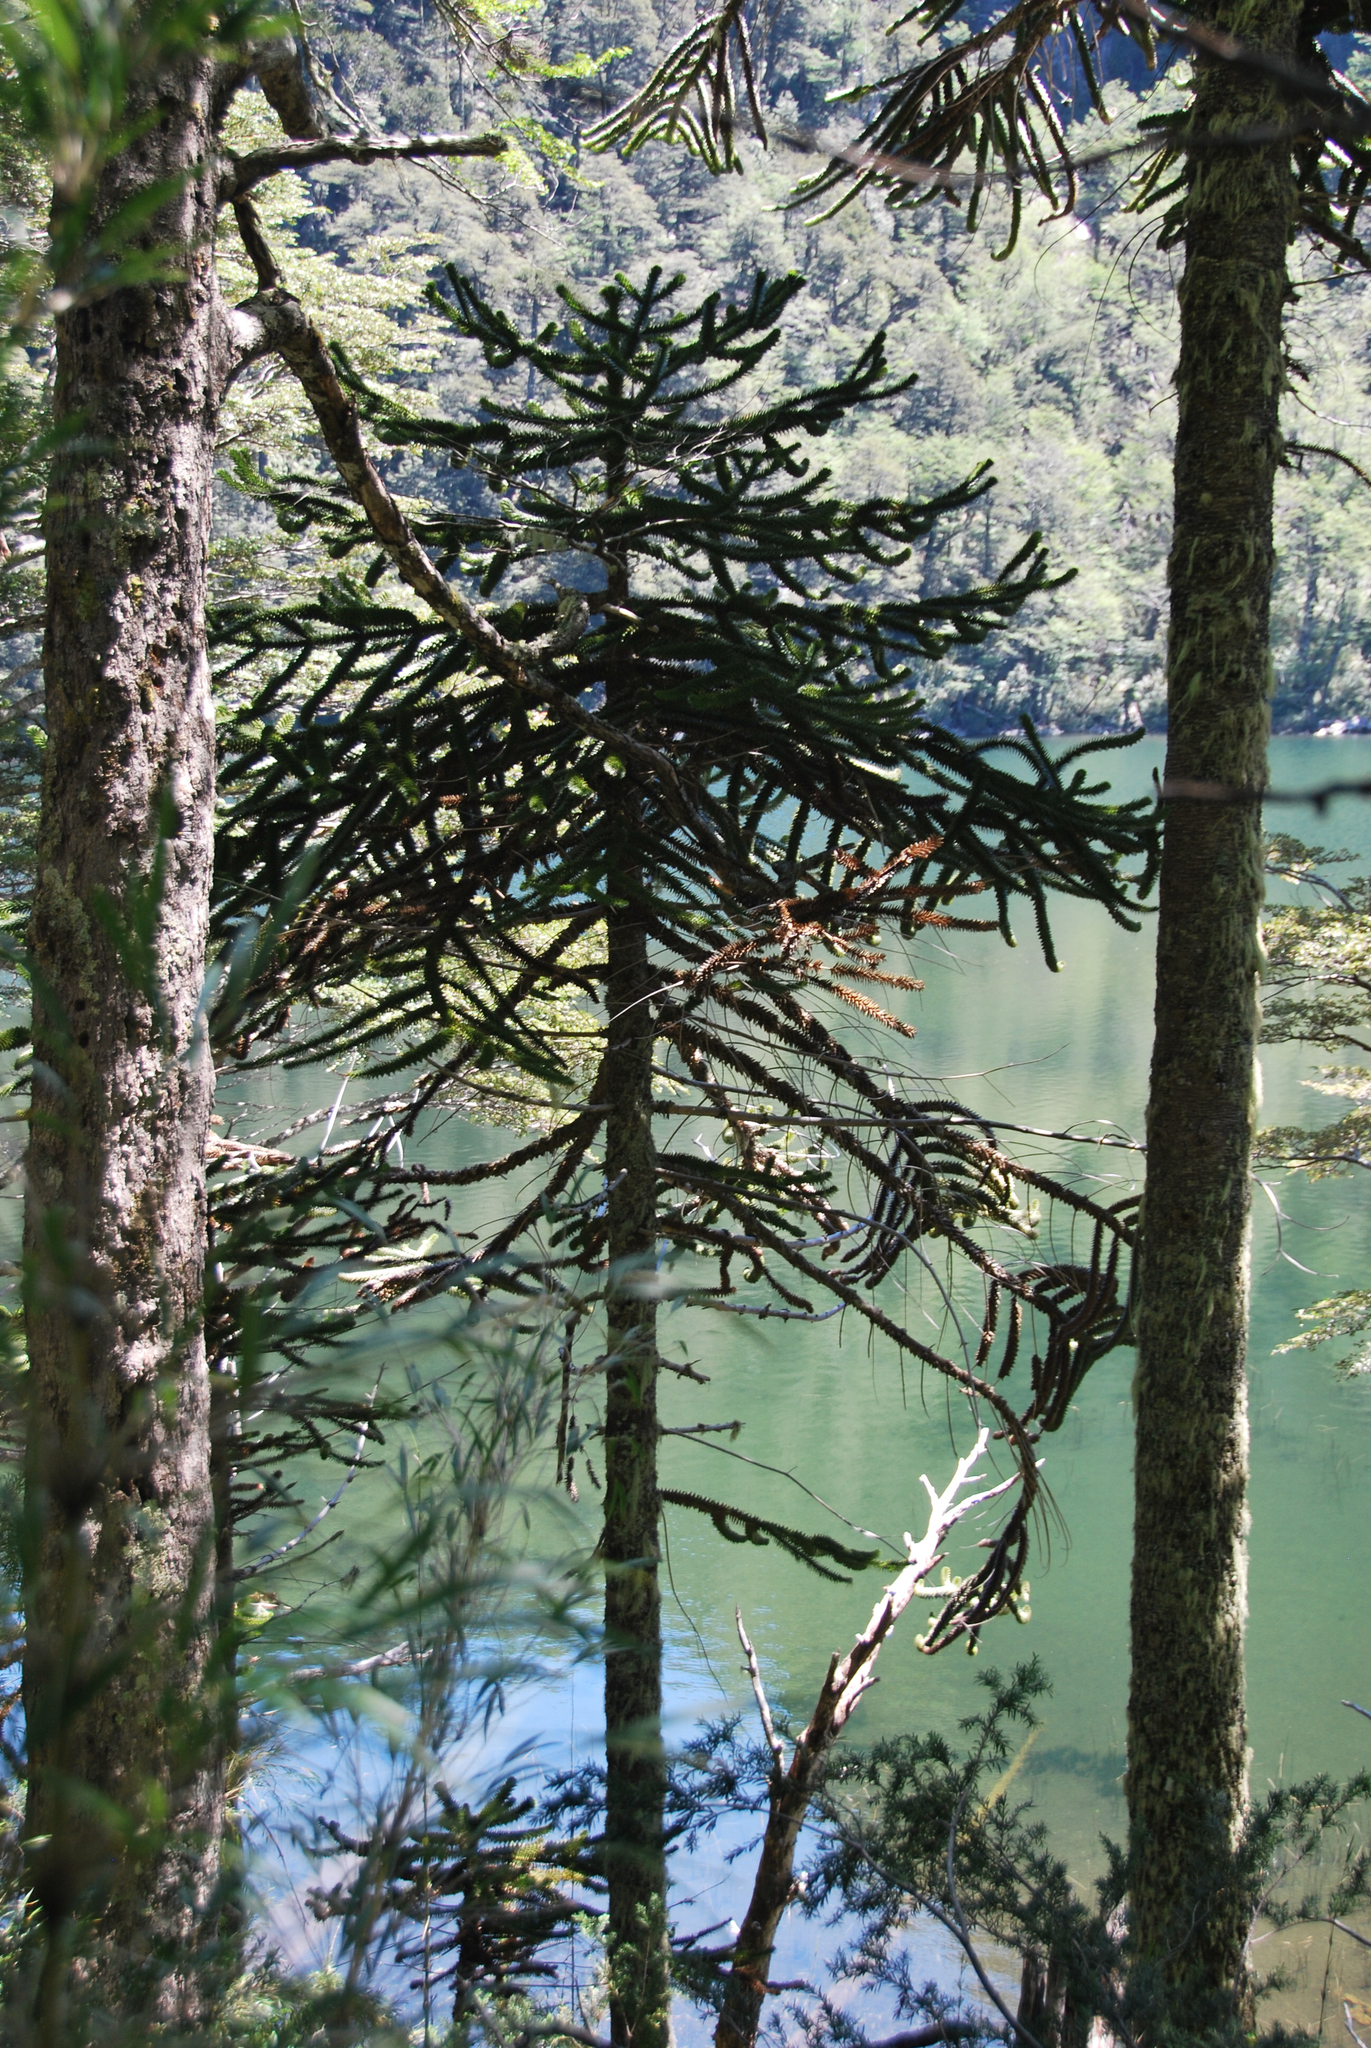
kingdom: Plantae
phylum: Tracheophyta
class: Pinopsida
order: Pinales
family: Araucariaceae
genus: Araucaria
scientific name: Araucaria araucana
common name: Monkey-puzzle
